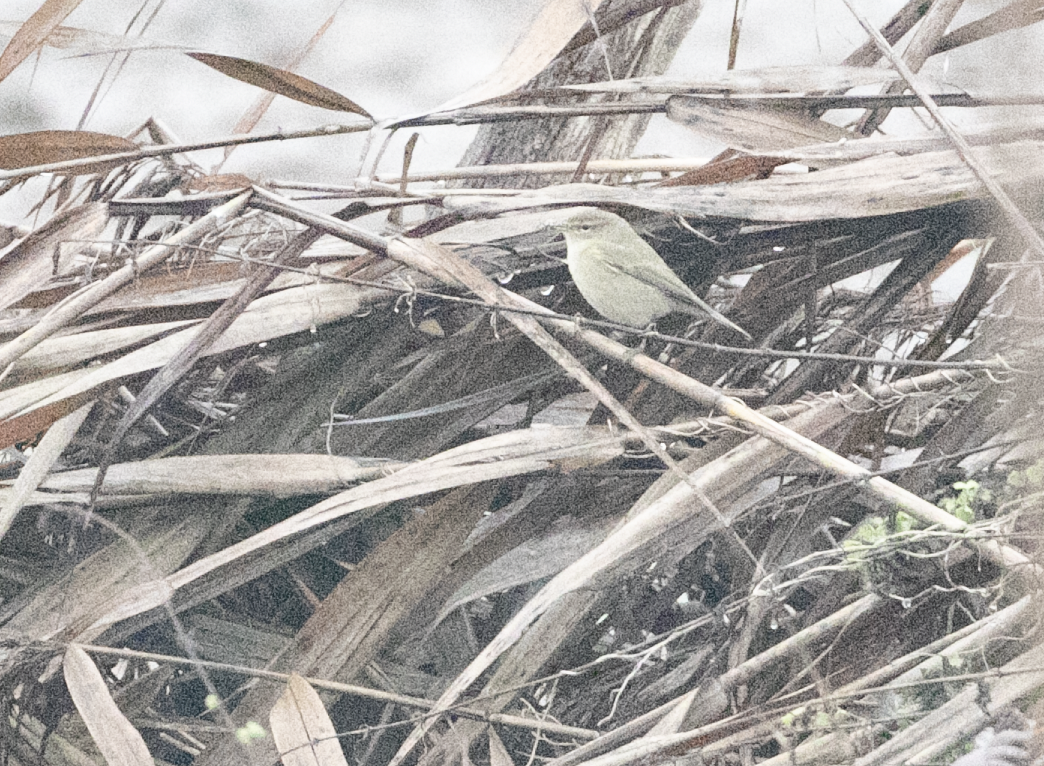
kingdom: Animalia
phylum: Chordata
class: Aves
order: Passeriformes
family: Phylloscopidae
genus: Phylloscopus
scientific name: Phylloscopus collybita
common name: Common chiffchaff
